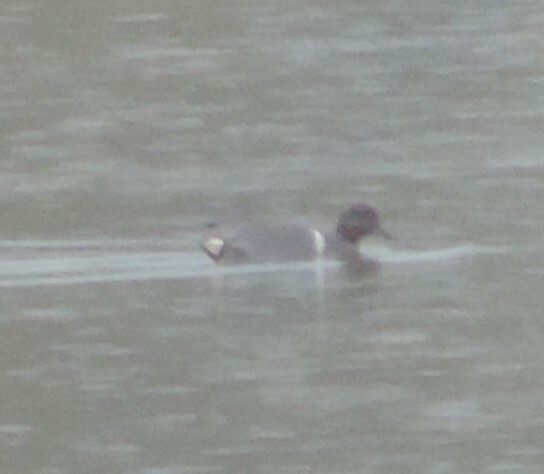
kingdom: Animalia
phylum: Chordata
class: Aves
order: Anseriformes
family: Anatidae
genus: Anas
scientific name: Anas carolinensis
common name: Green-winged teal
